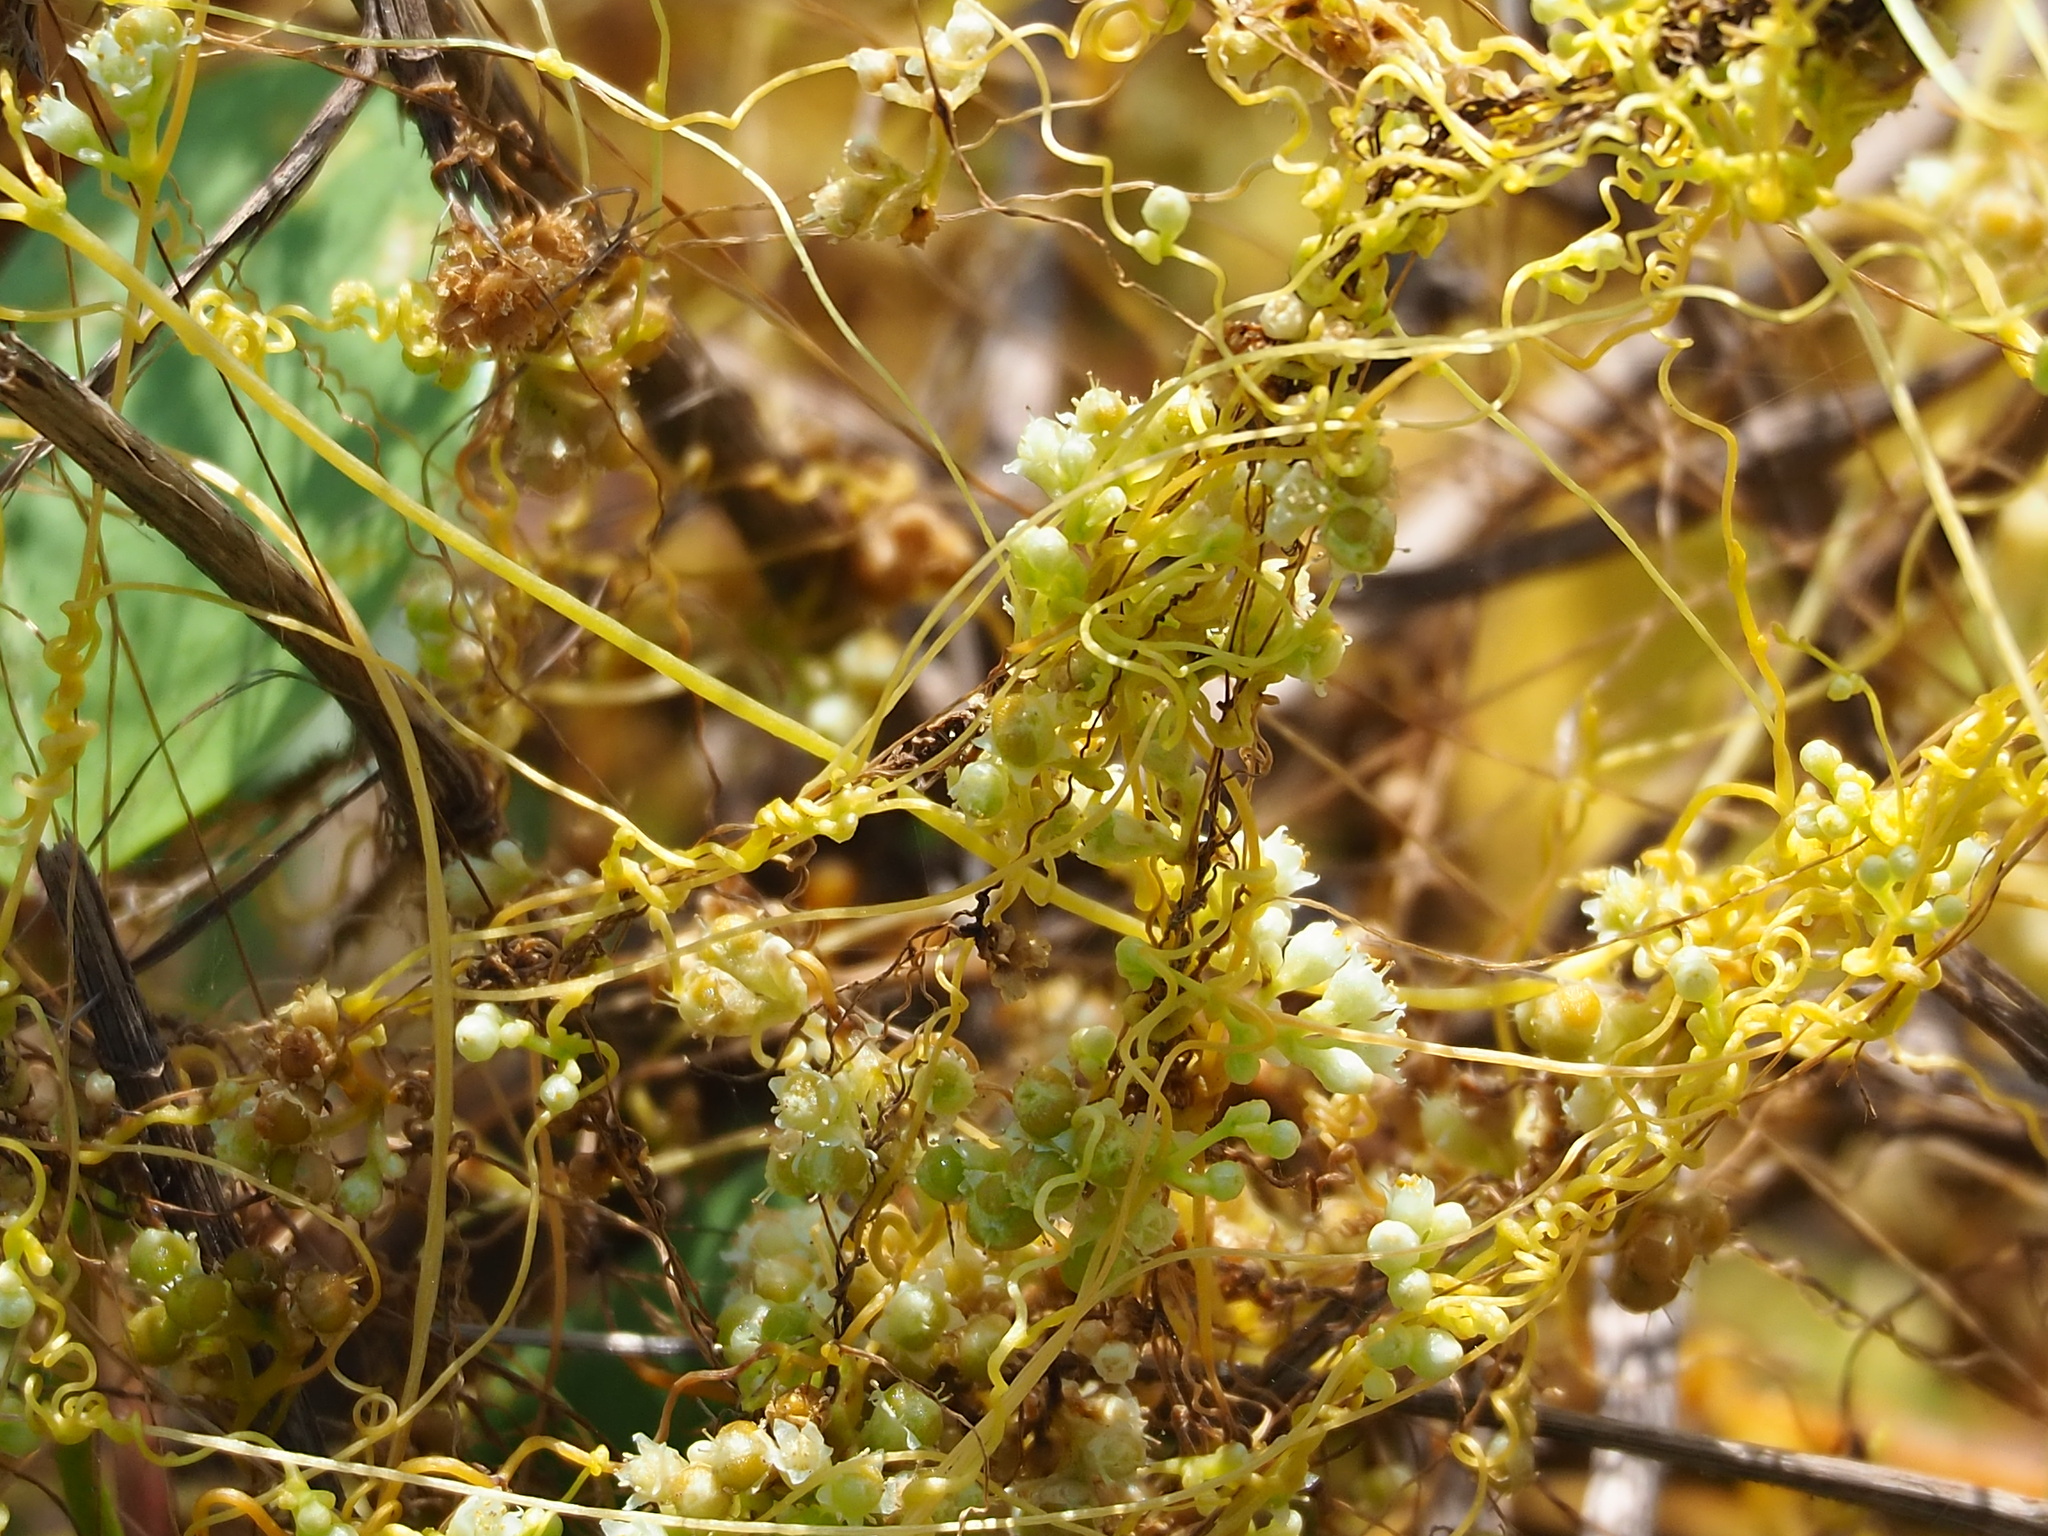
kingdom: Plantae
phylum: Tracheophyta
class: Magnoliopsida
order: Solanales
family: Convolvulaceae
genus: Cuscuta
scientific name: Cuscuta campestris
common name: Yellow dodder
